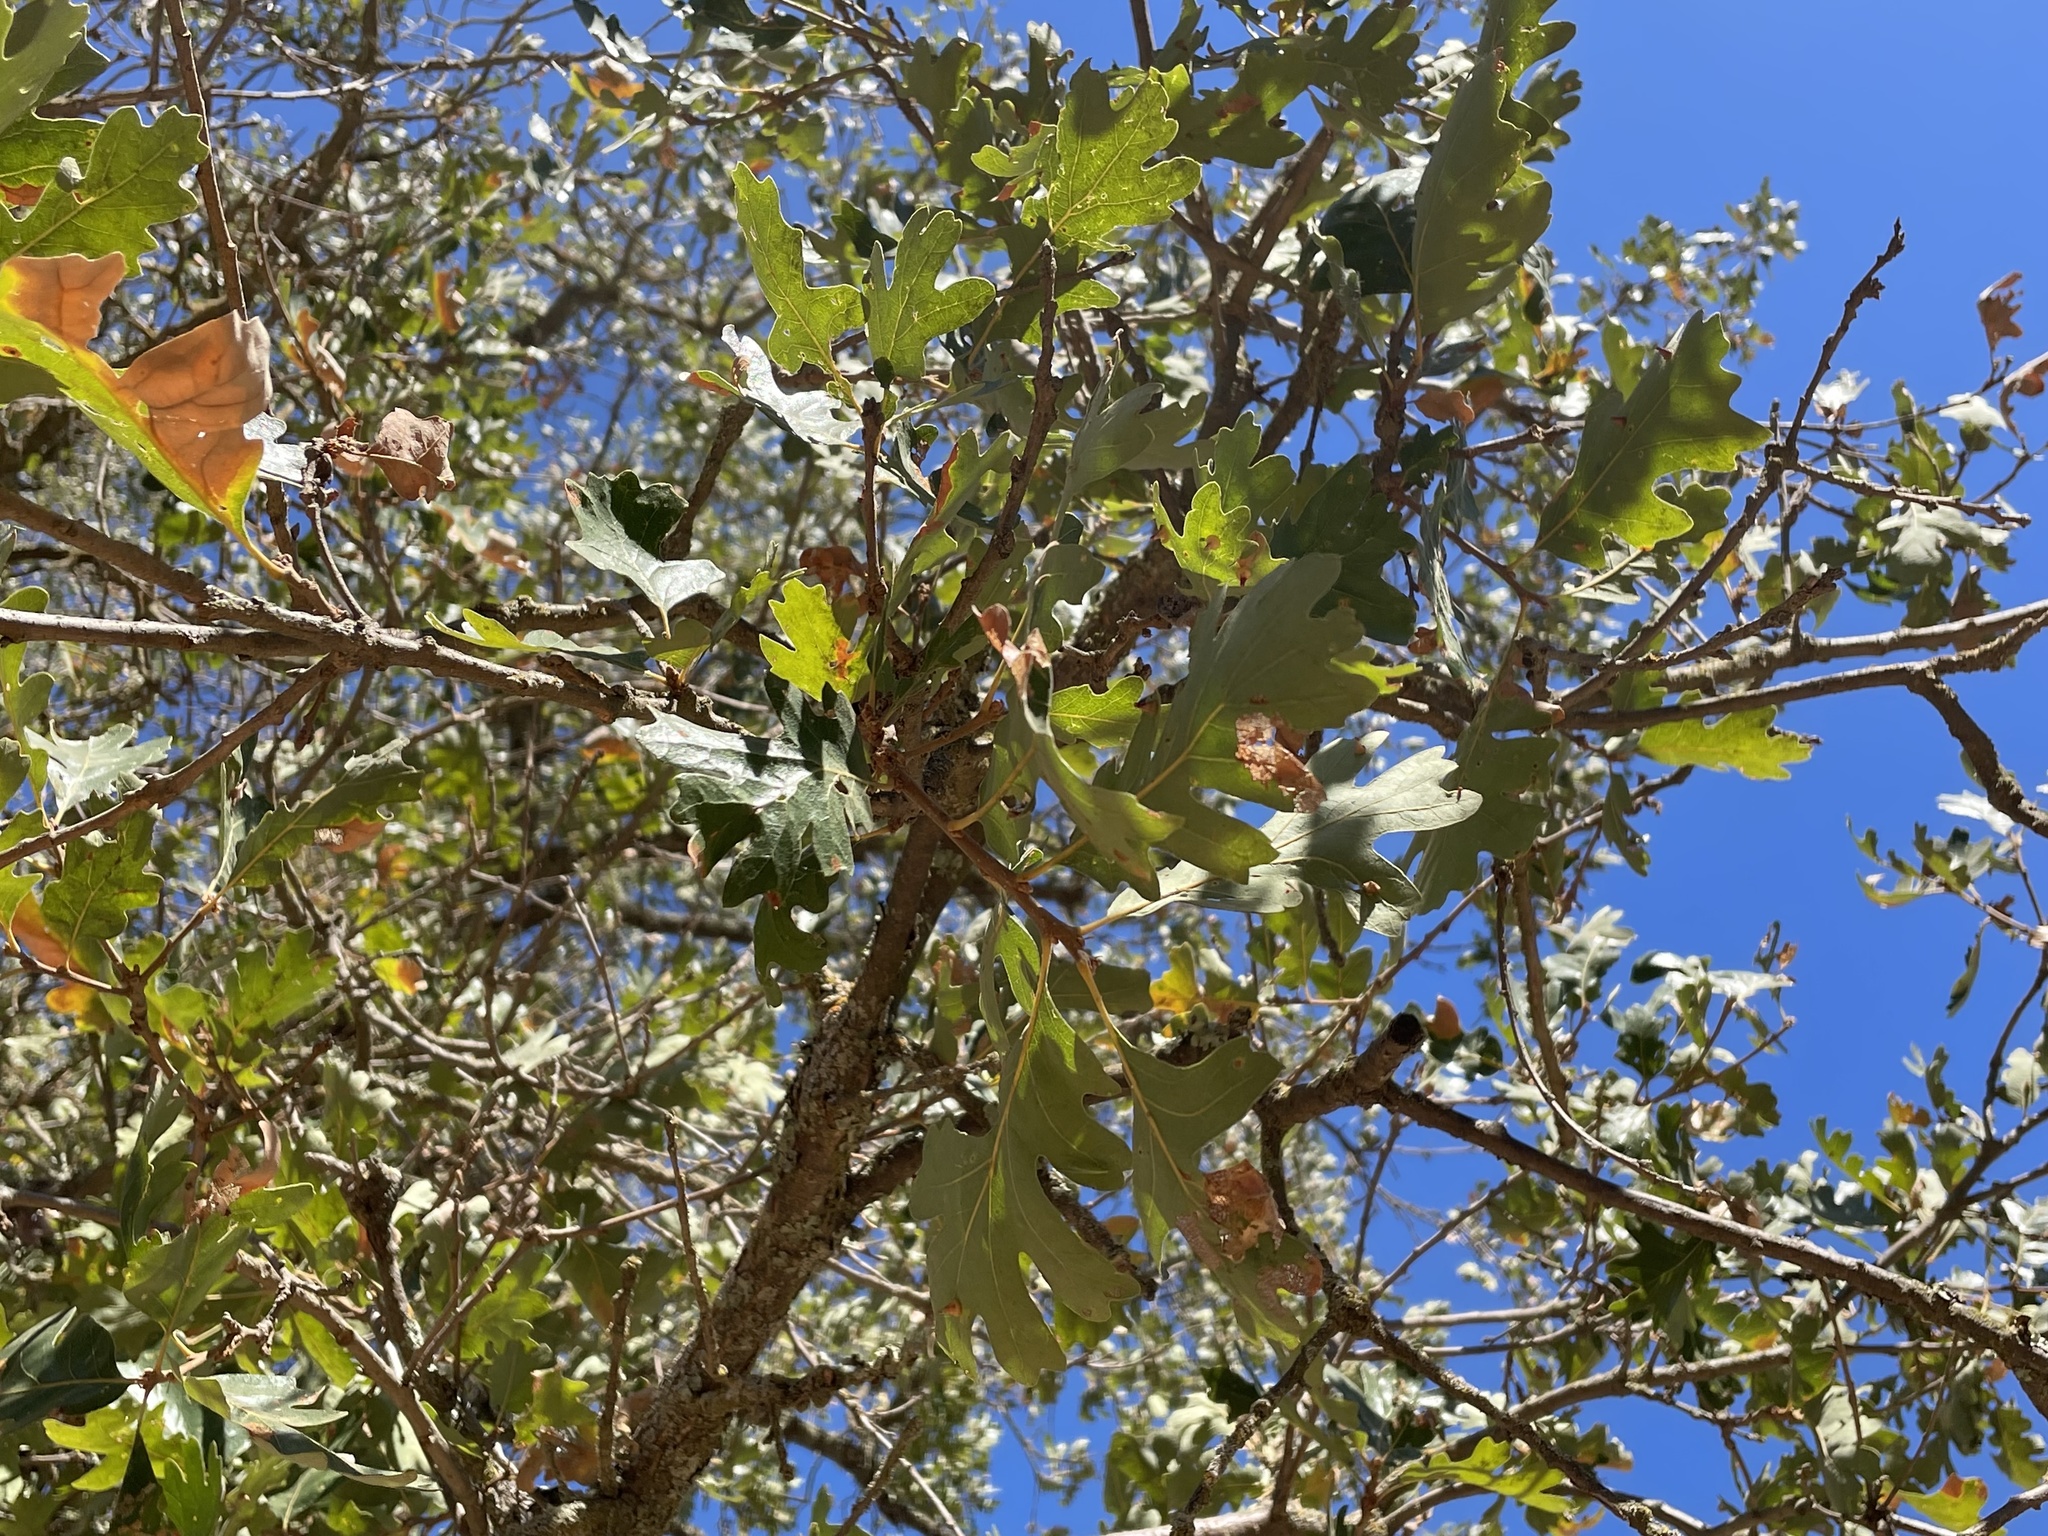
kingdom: Plantae
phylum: Tracheophyta
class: Magnoliopsida
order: Fagales
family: Fagaceae
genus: Quercus
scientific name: Quercus lobata
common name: Valley oak
